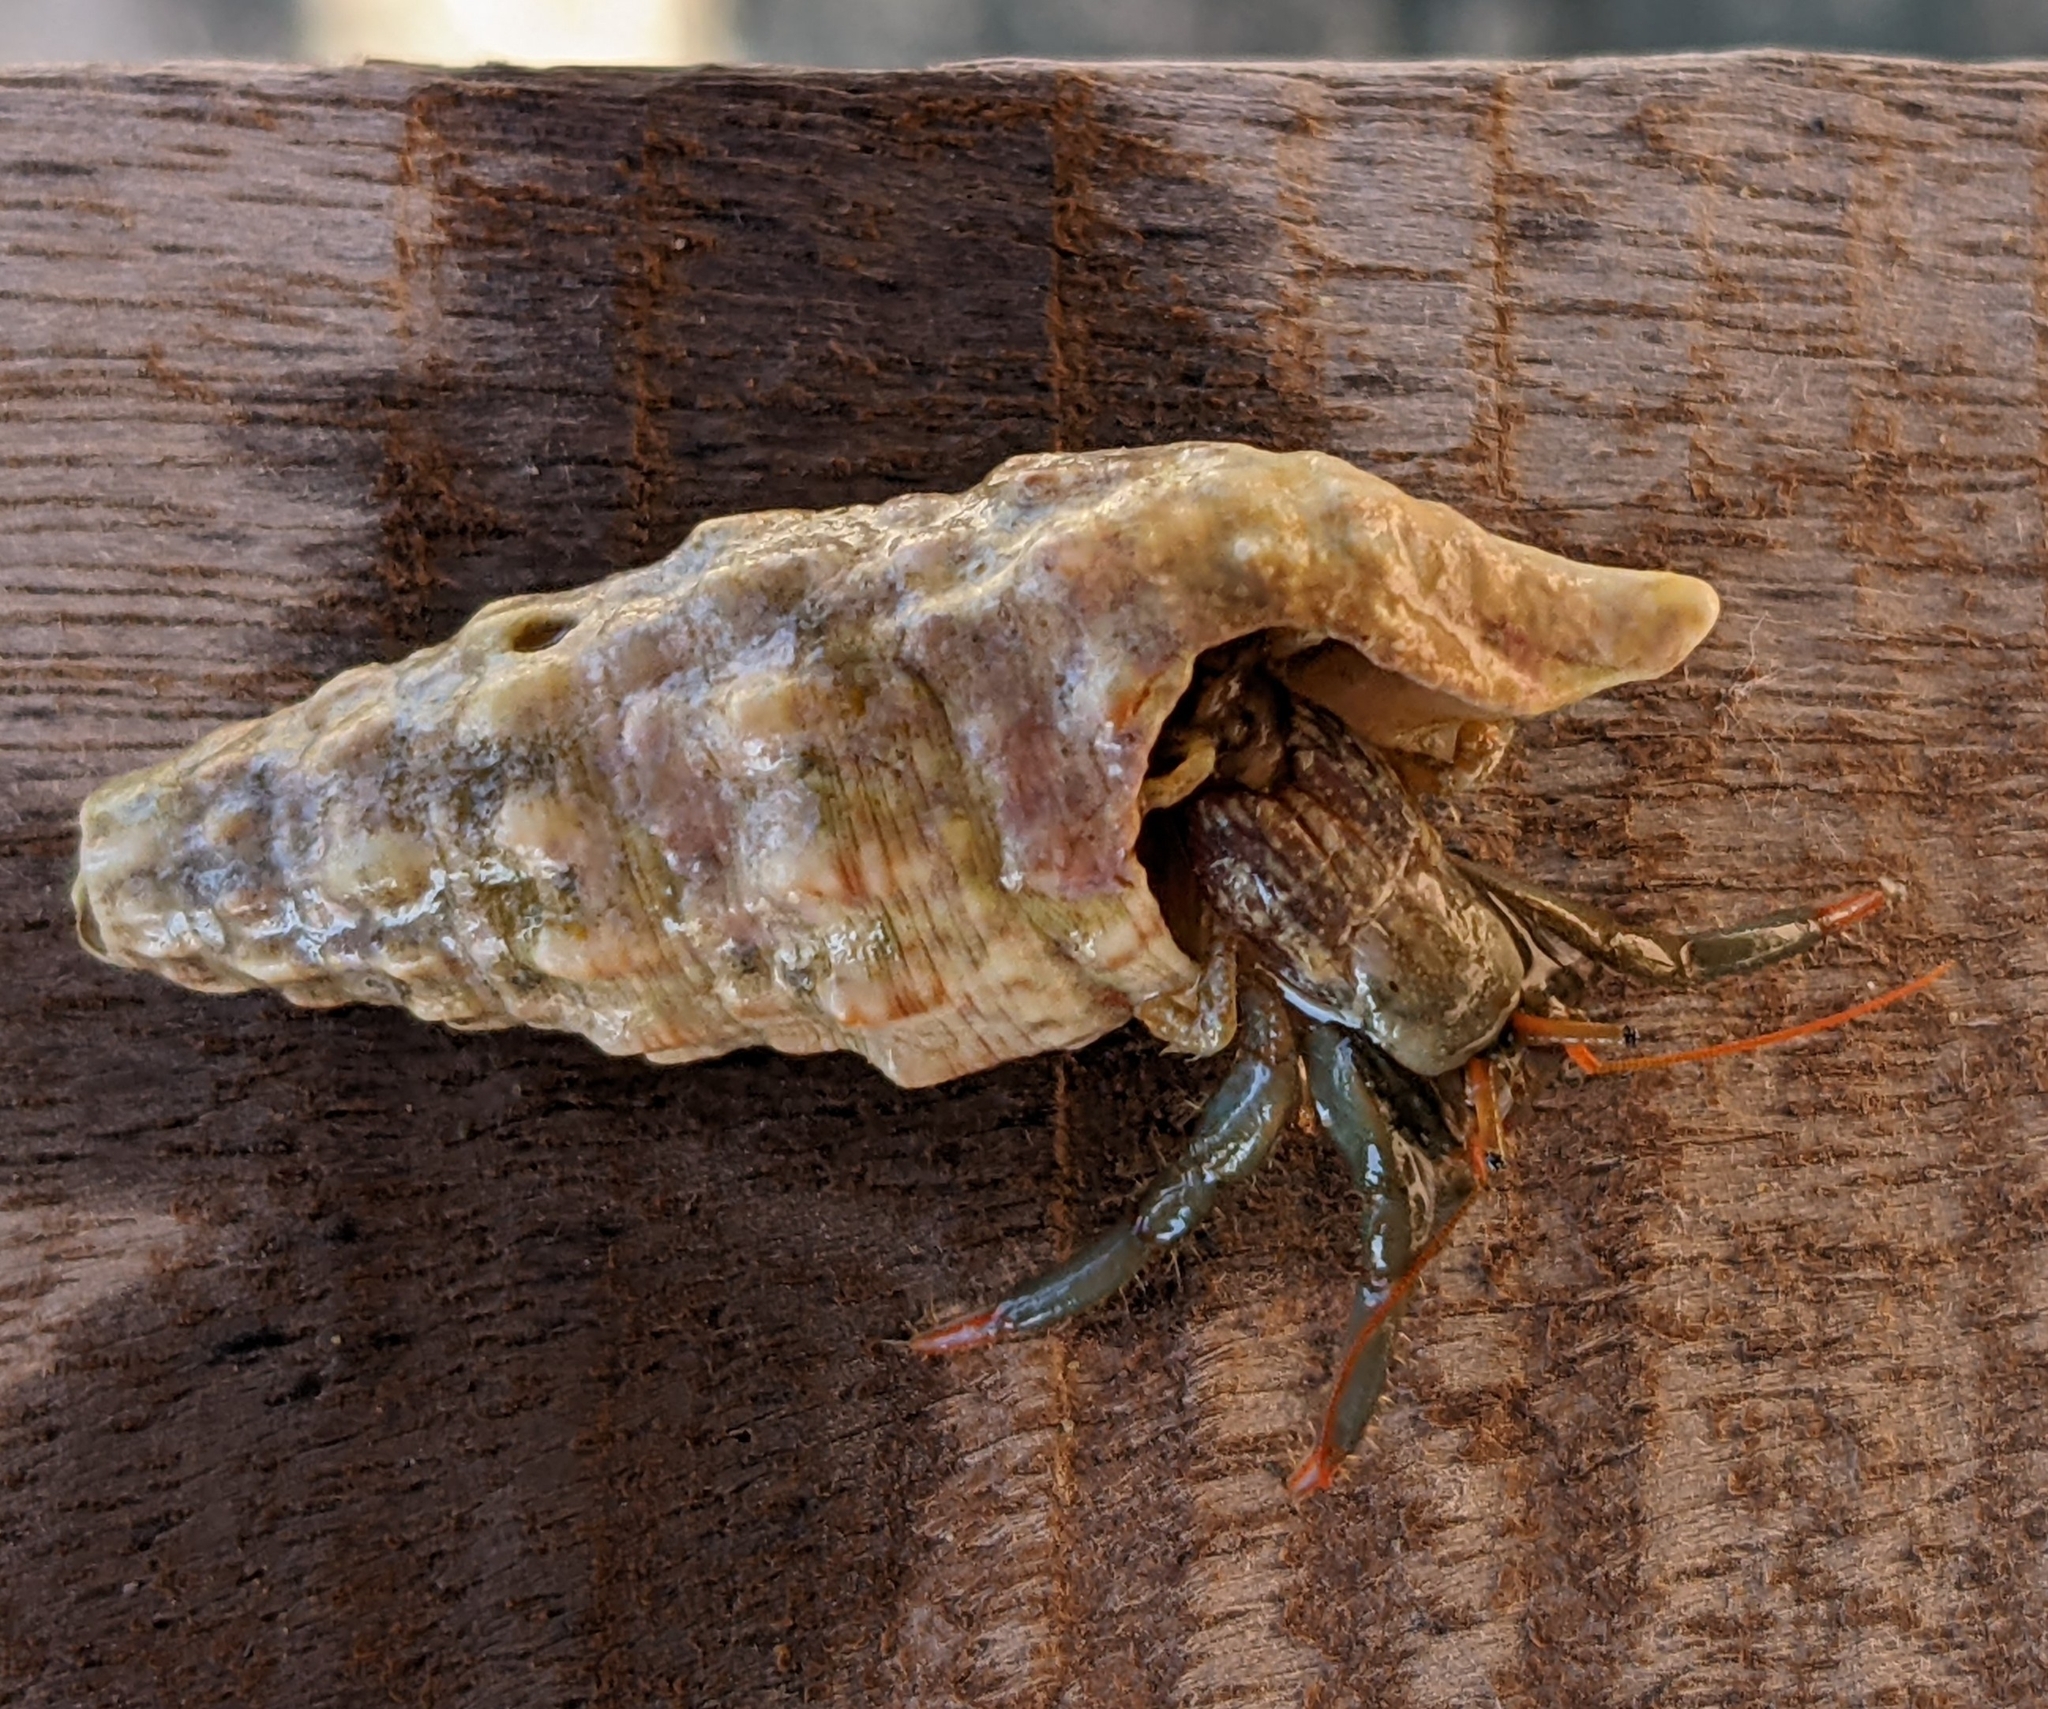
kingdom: Animalia
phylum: Arthropoda
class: Malacostraca
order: Decapoda
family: Diogenidae
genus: Clibanarius
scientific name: Clibanarius erythropus
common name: Hermit crab
